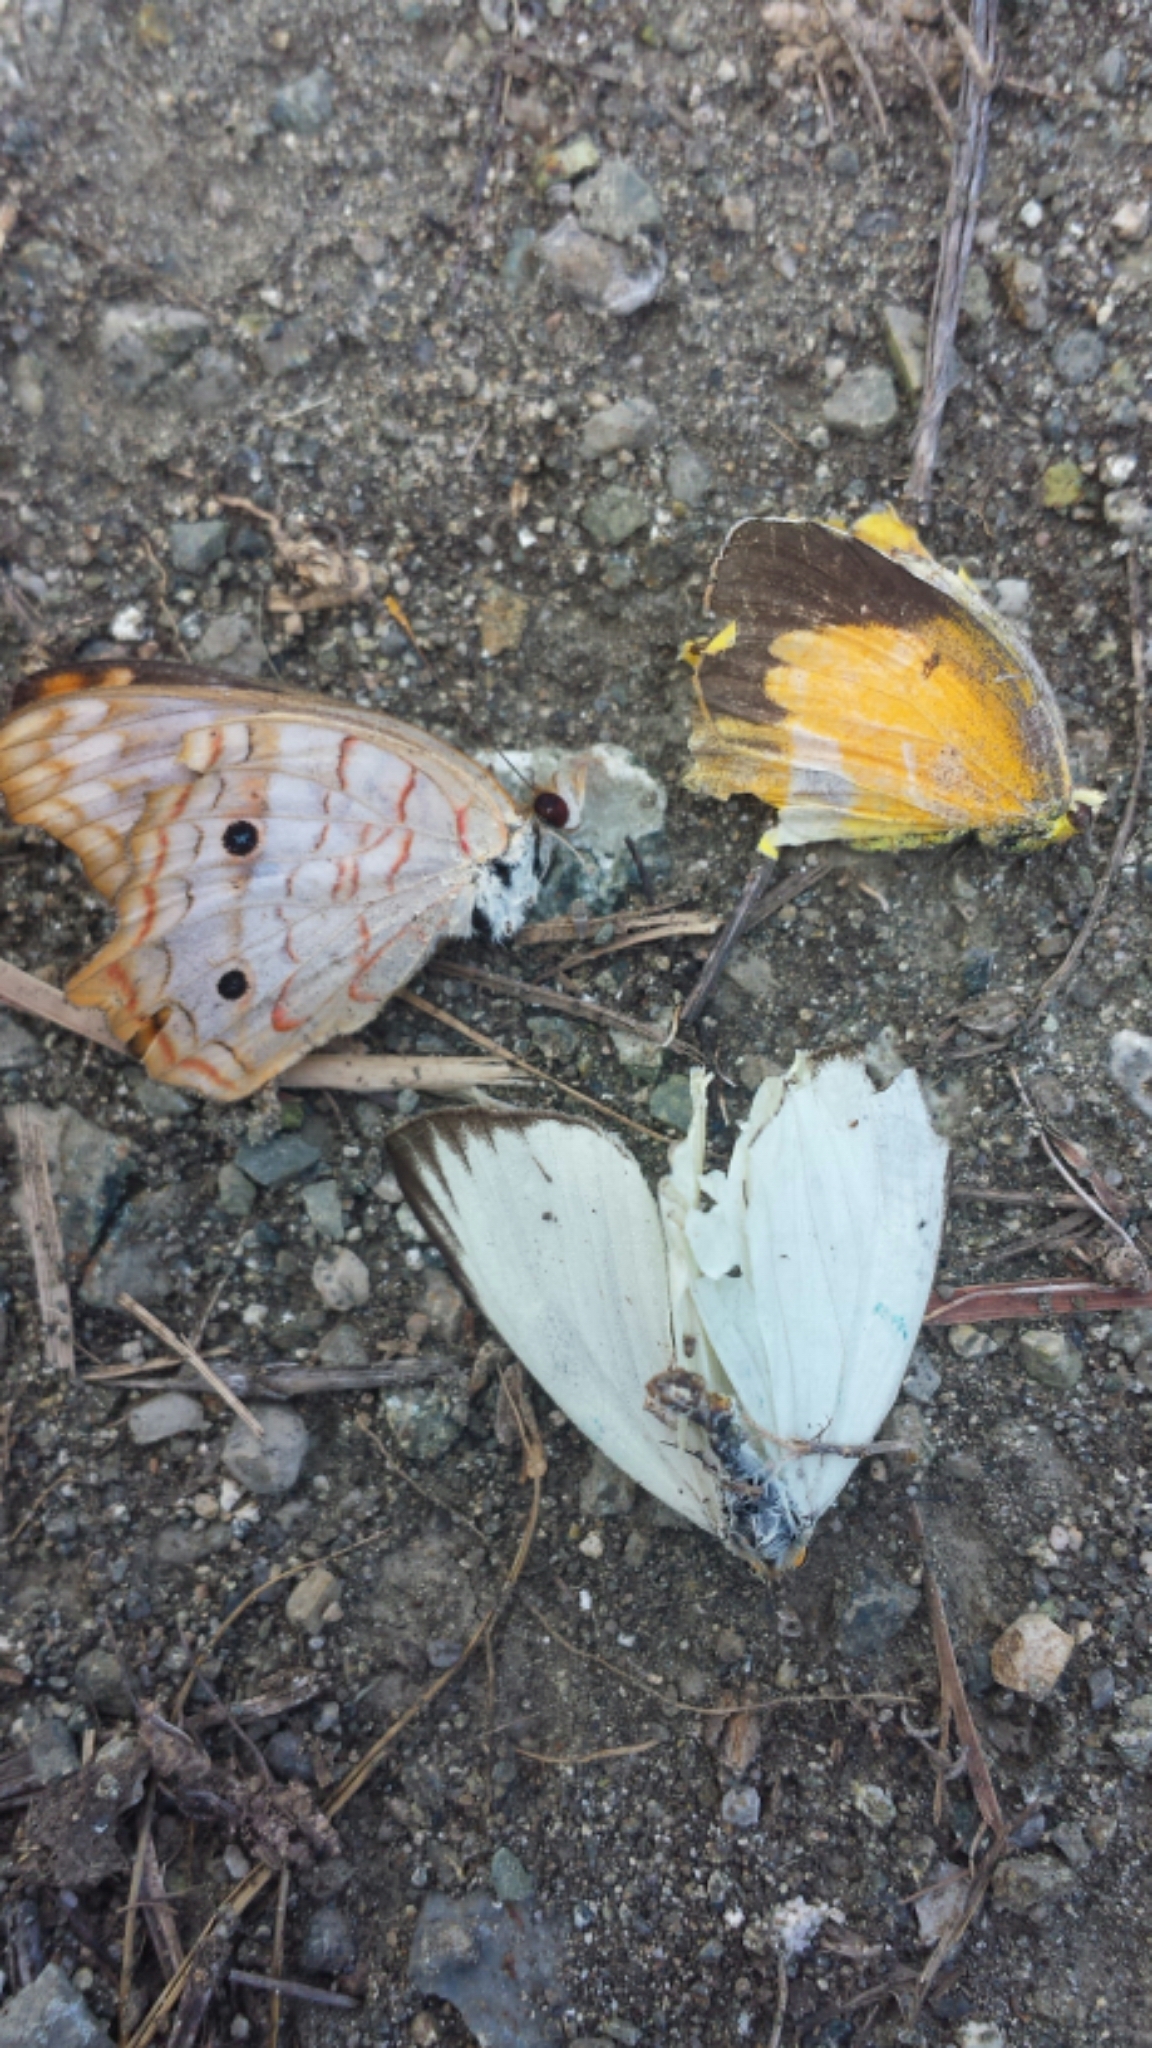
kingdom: Animalia
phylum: Arthropoda
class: Insecta
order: Lepidoptera
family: Nymphalidae
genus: Anartia
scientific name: Anartia jatrophae
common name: White peacock
